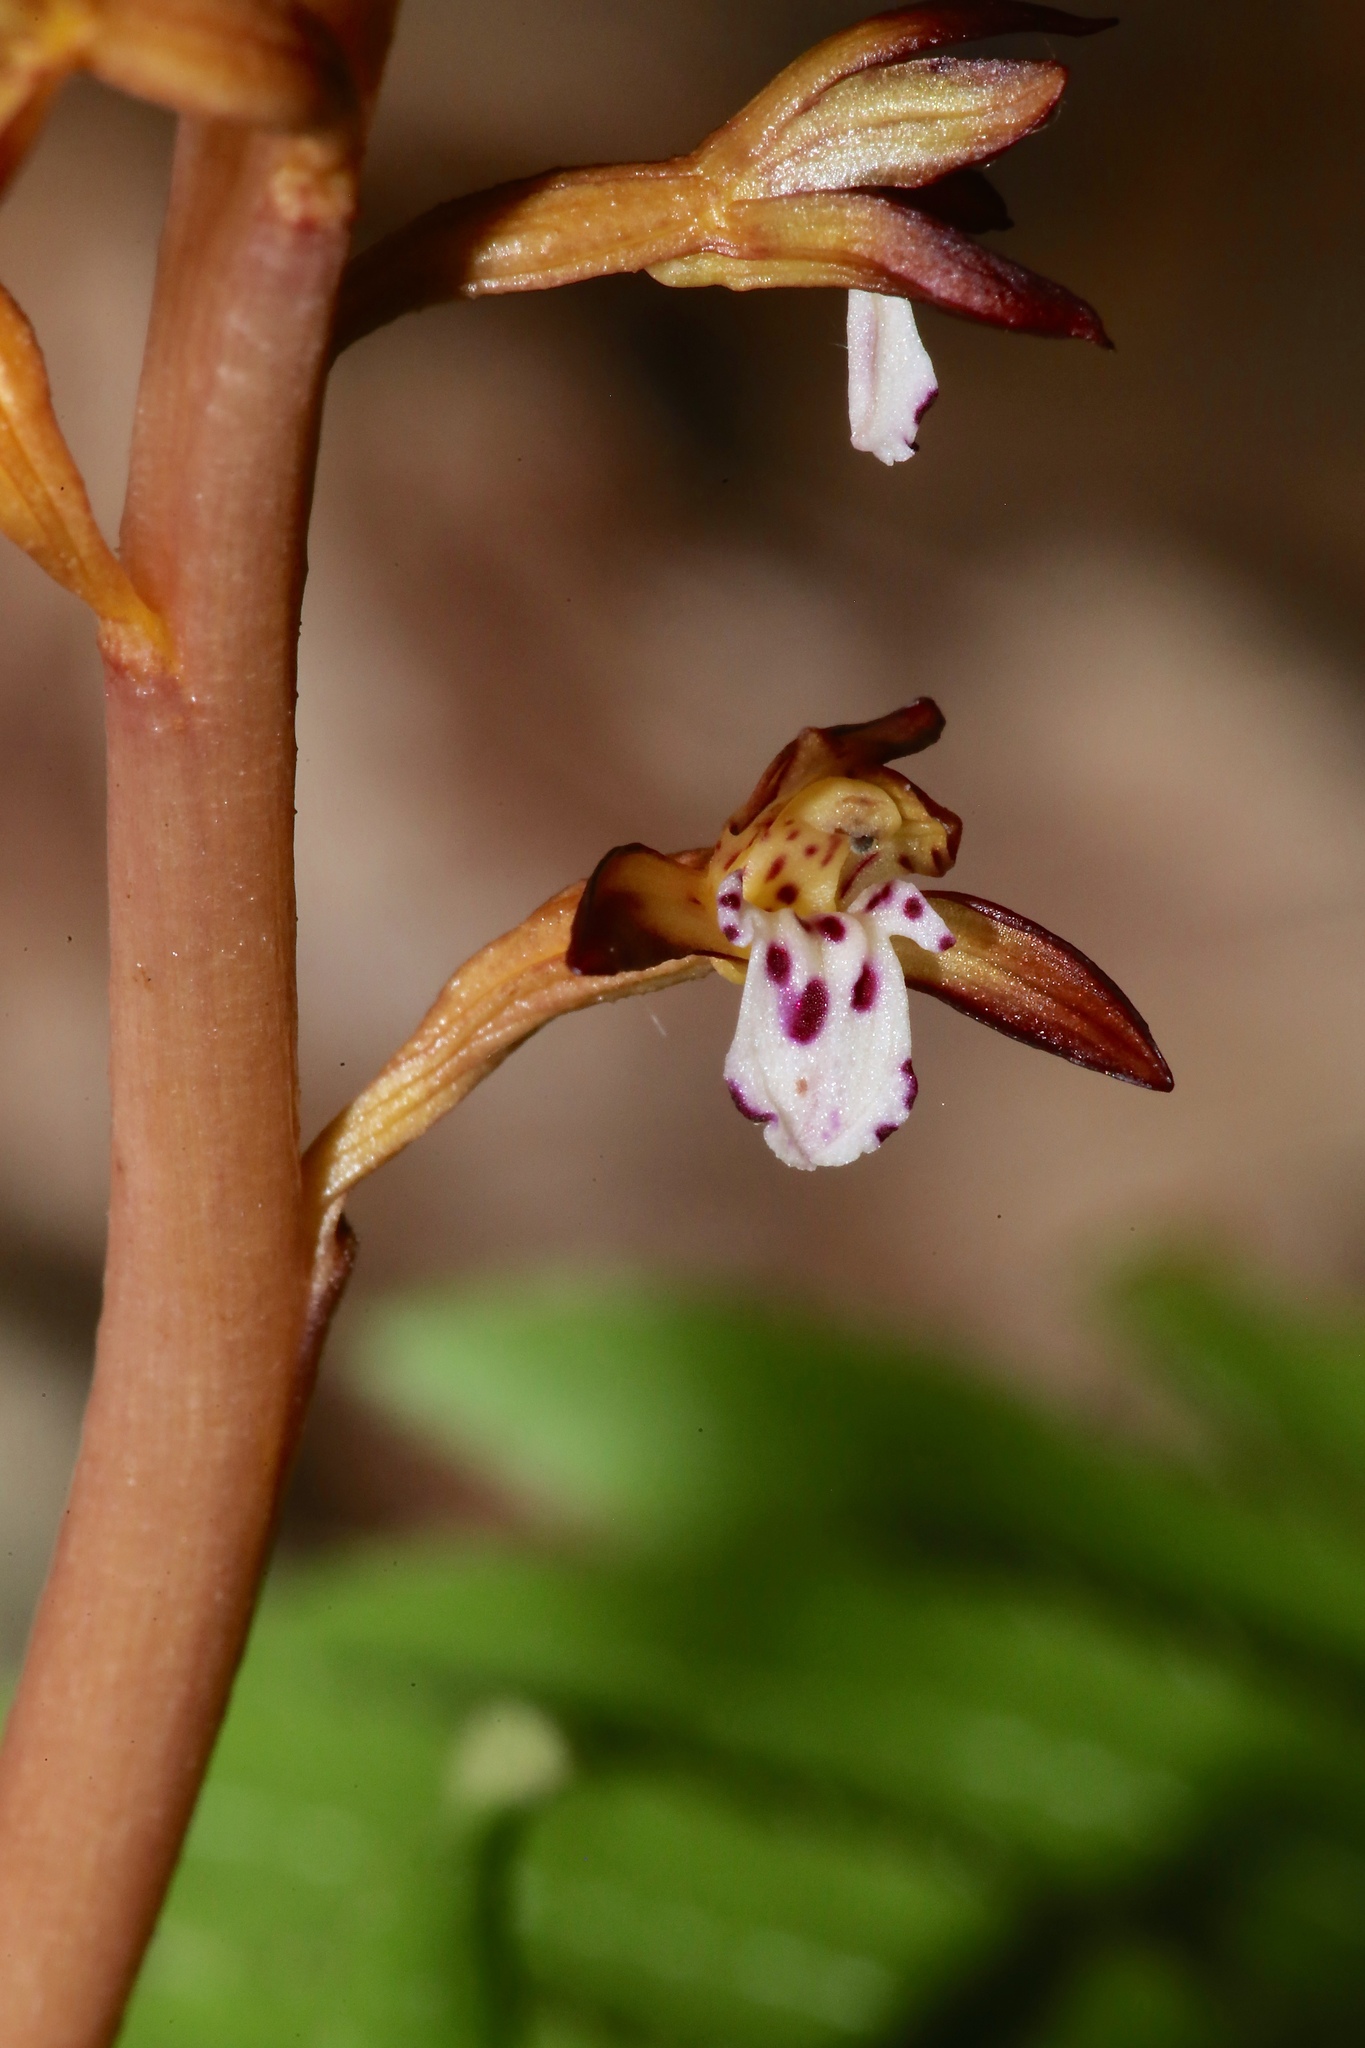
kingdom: Plantae
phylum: Tracheophyta
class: Liliopsida
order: Asparagales
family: Orchidaceae
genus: Corallorhiza
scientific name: Corallorhiza maculata
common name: Spotted coralroot
